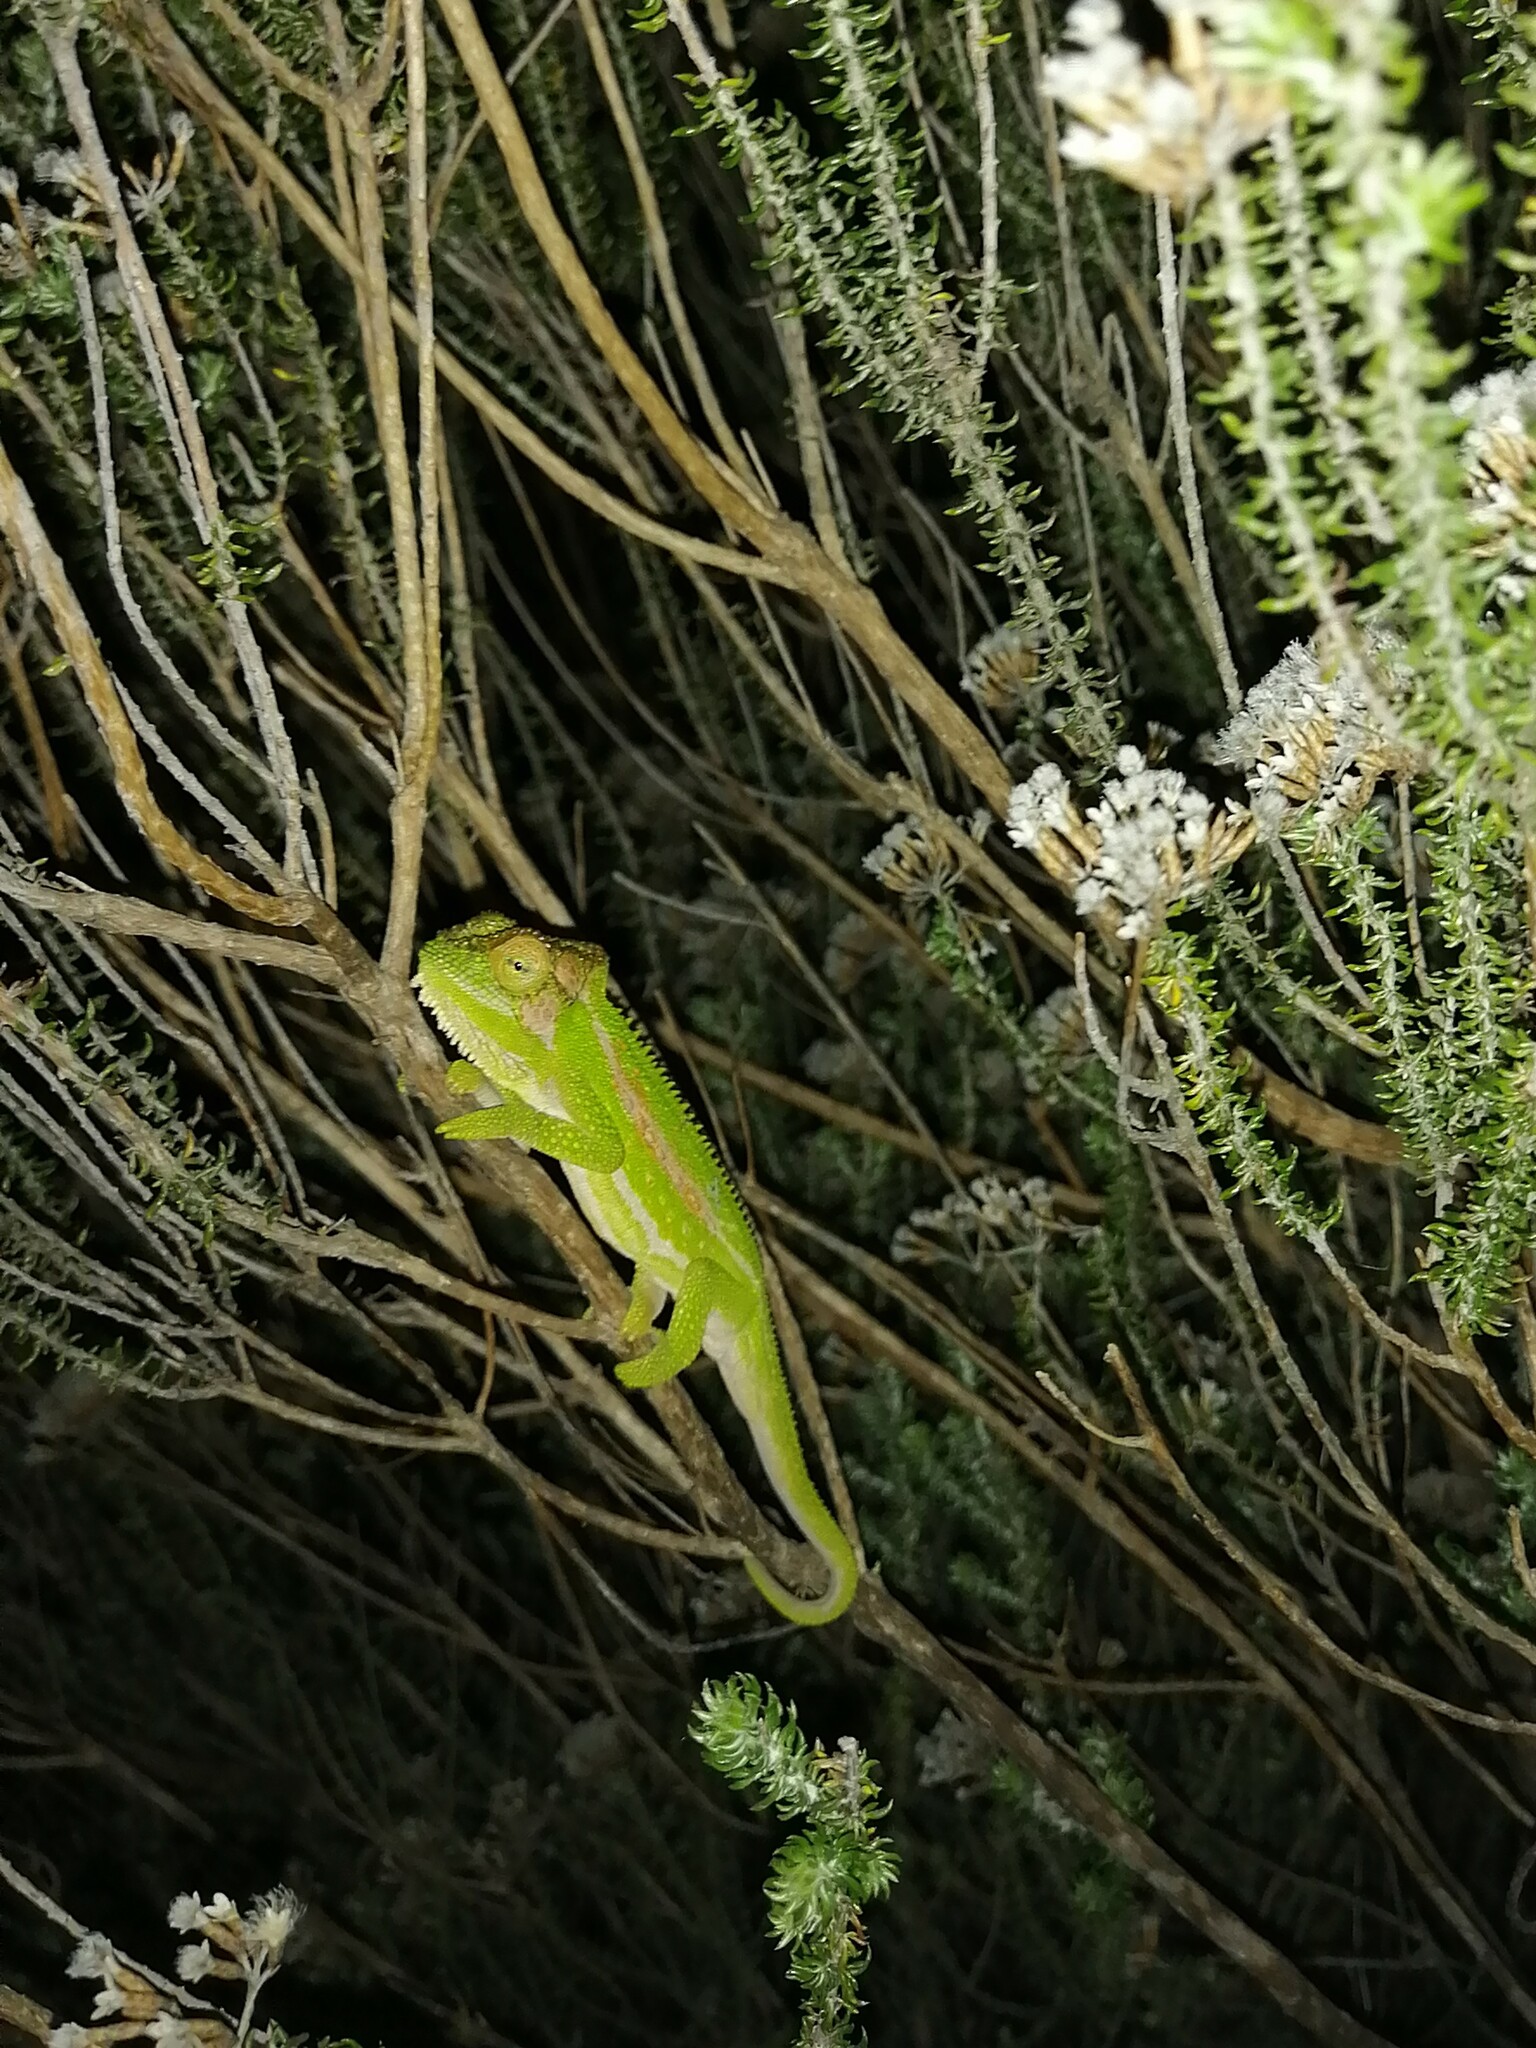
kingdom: Animalia
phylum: Chordata
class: Squamata
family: Chamaeleonidae
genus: Bradypodion
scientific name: Bradypodion pumilum
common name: Cape dwarf chameleon
